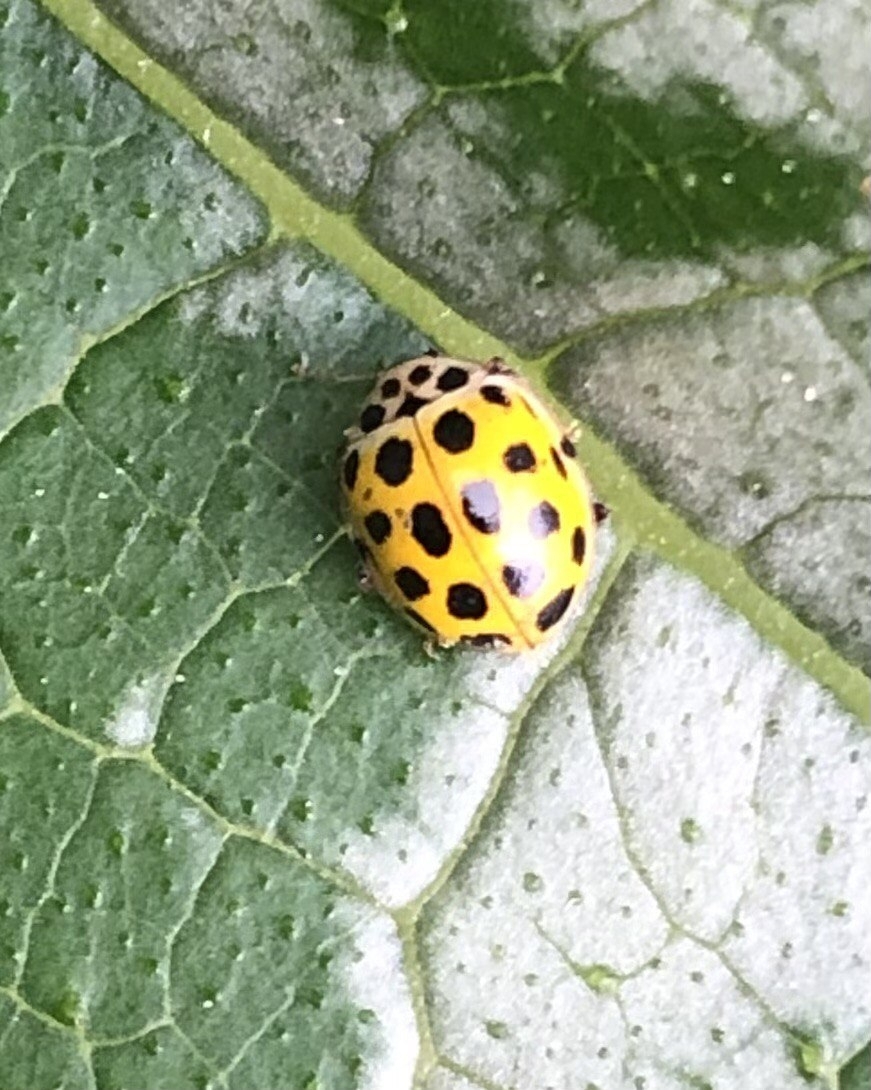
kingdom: Animalia
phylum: Arthropoda
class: Insecta
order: Coleoptera
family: Coccinellidae
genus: Psyllobora
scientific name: Psyllobora vigintiduopunctata
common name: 22-spot ladybird
